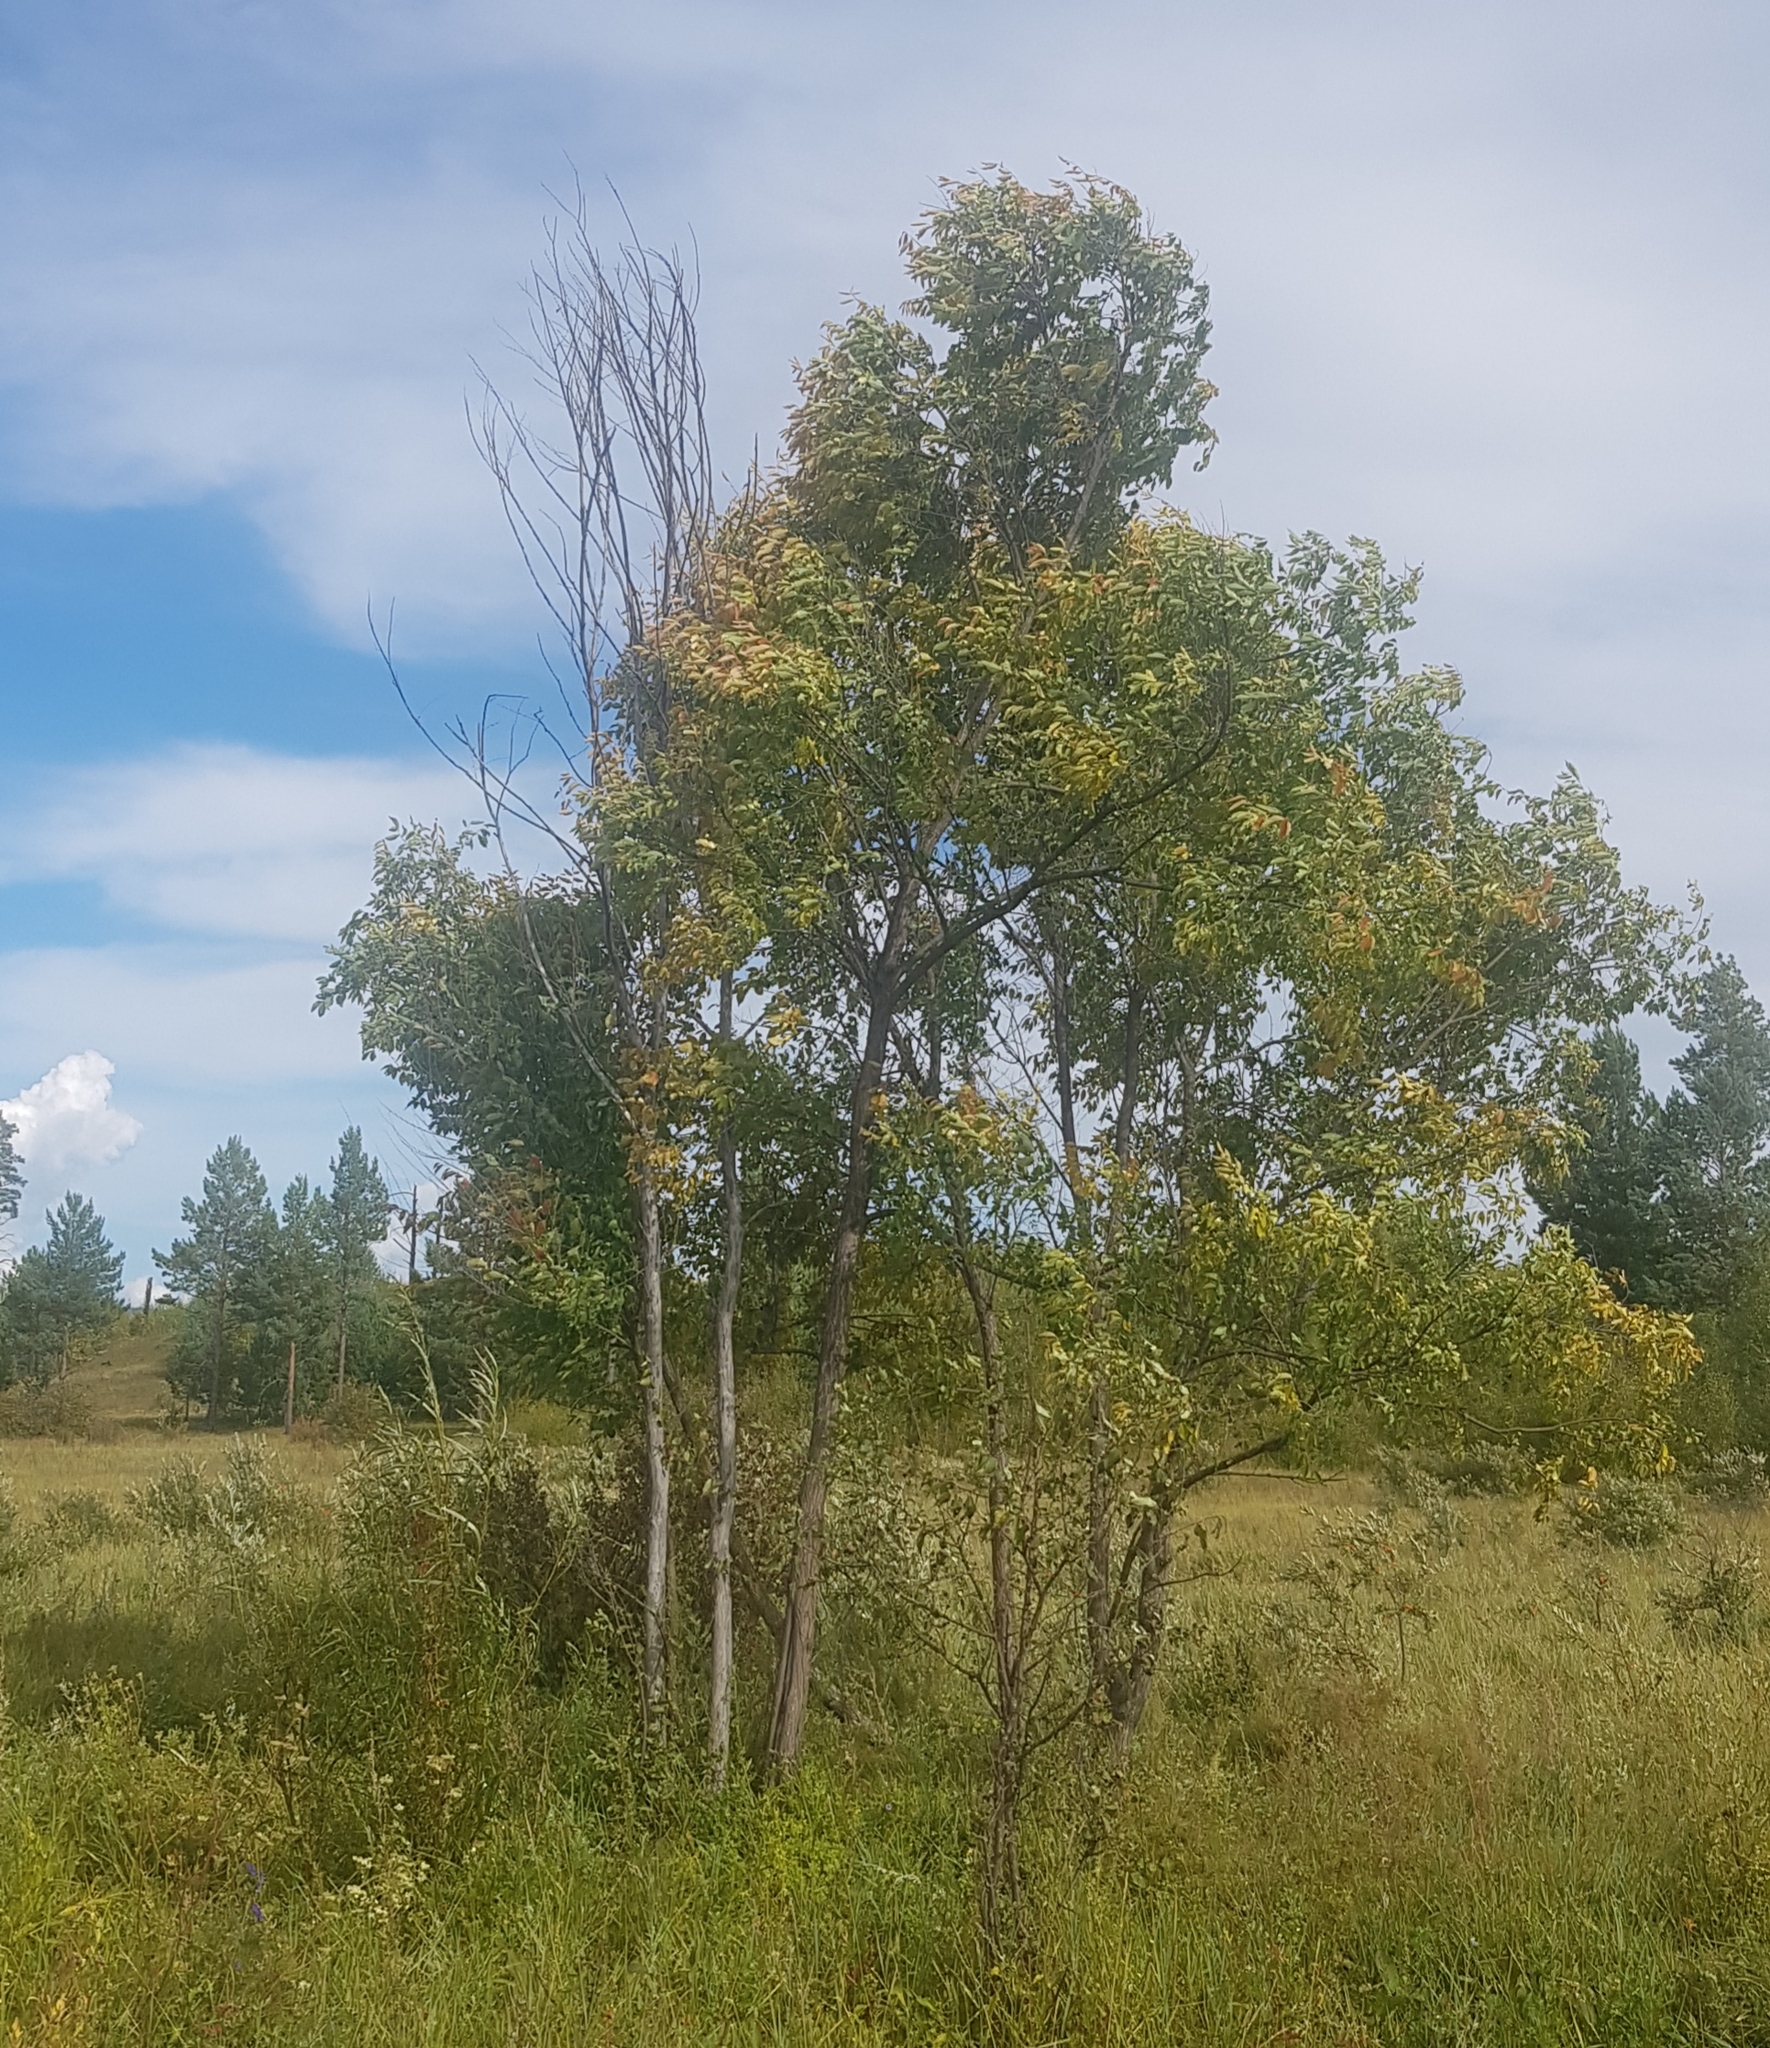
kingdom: Plantae
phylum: Tracheophyta
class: Magnoliopsida
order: Rosales
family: Ulmaceae
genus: Ulmus
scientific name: Ulmus pumila
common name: Siberian elm
